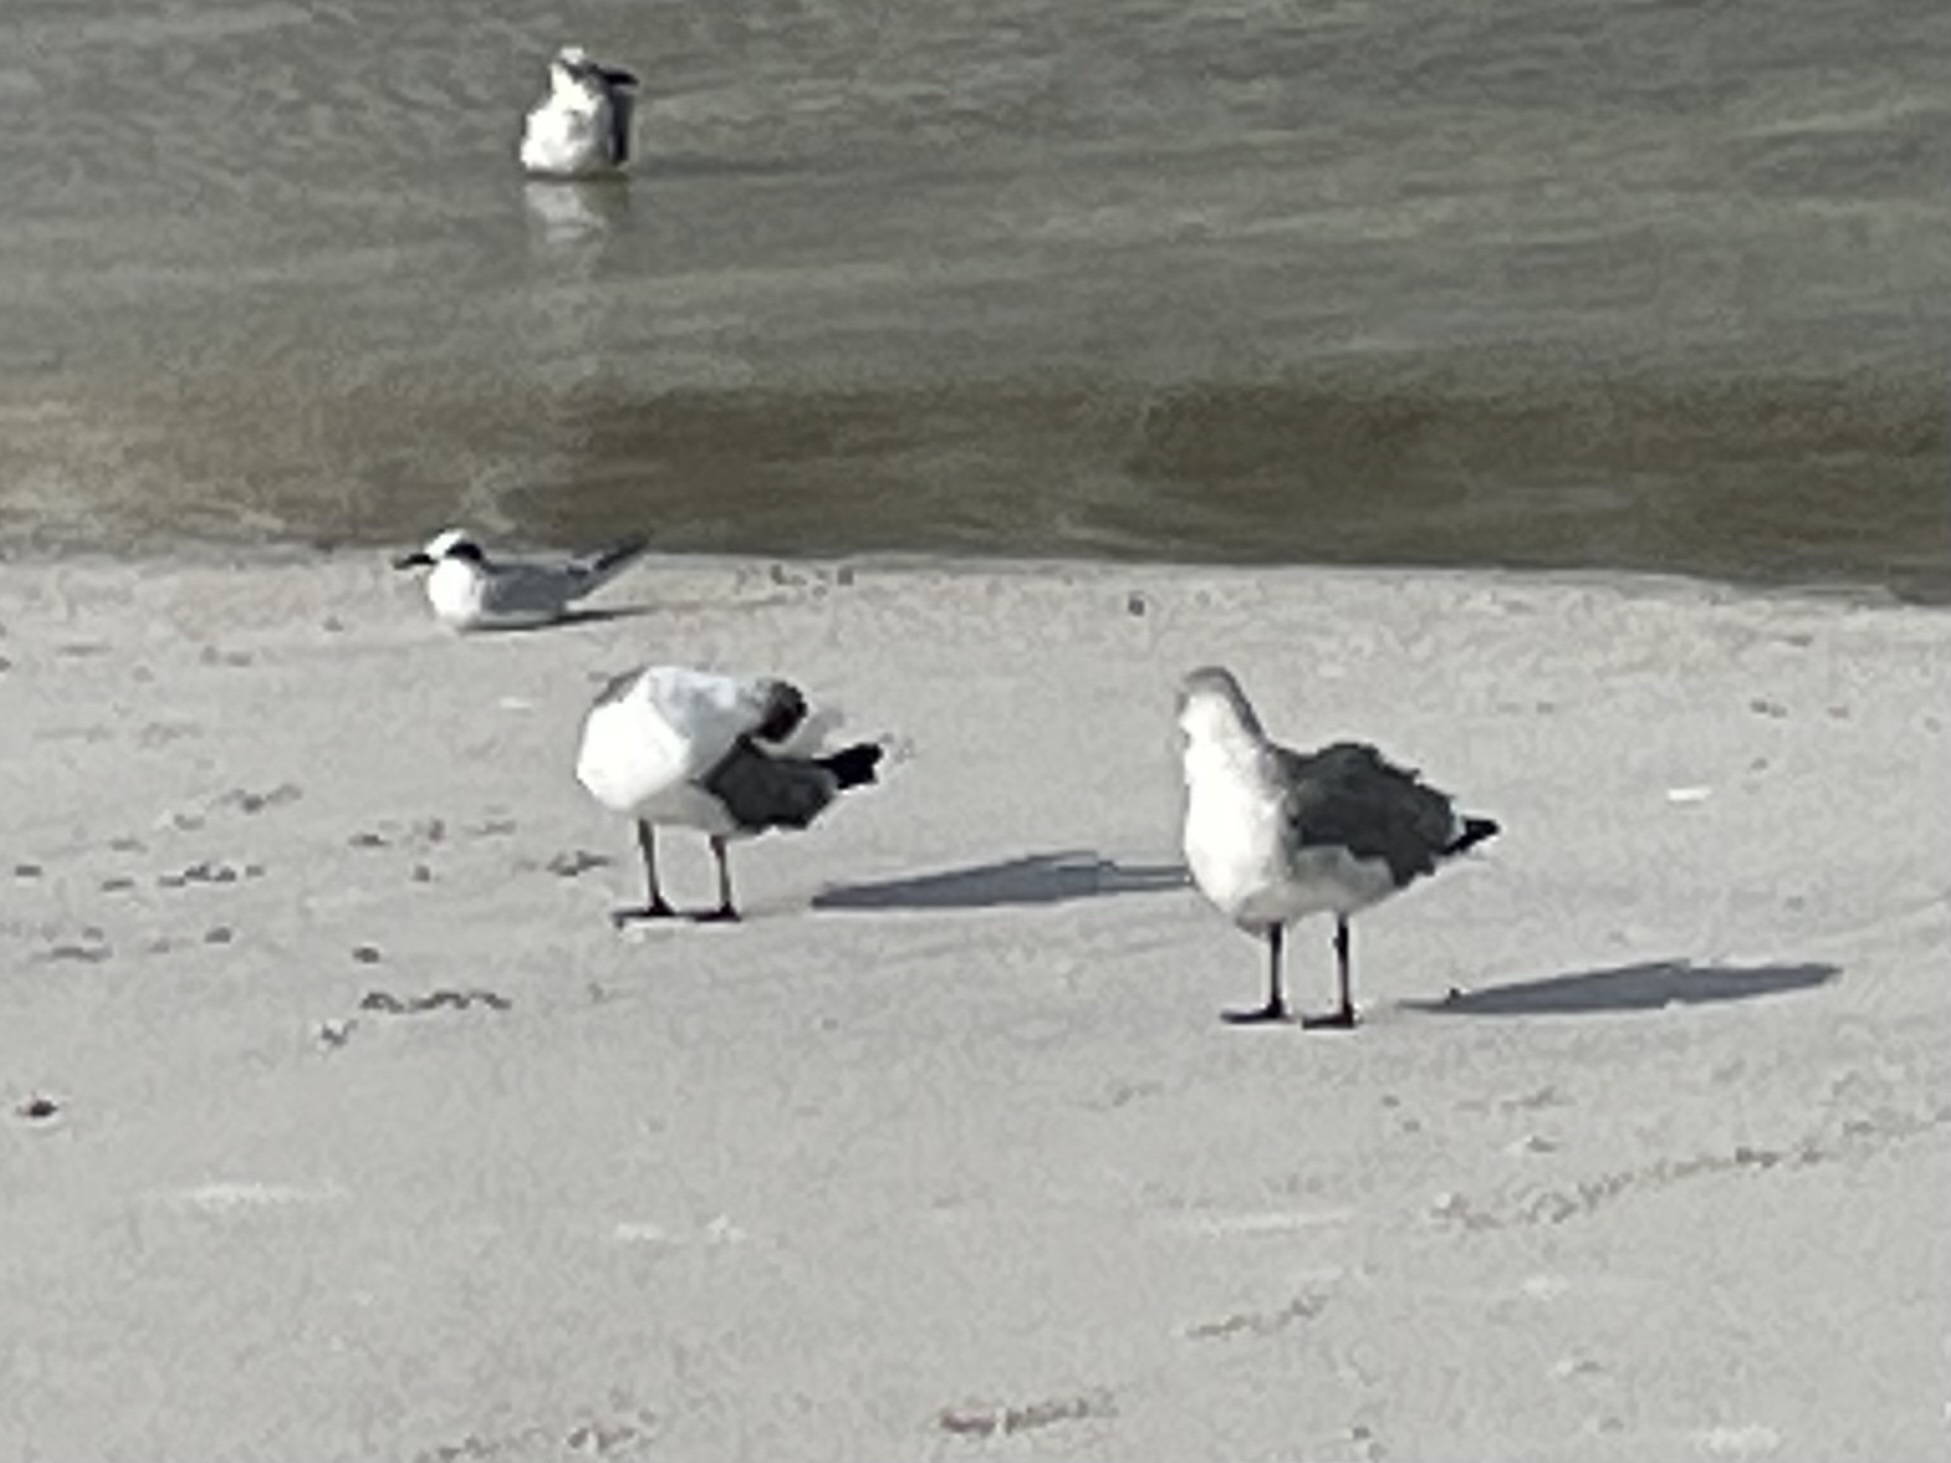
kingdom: Animalia
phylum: Chordata
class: Aves
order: Charadriiformes
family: Laridae
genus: Leucophaeus
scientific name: Leucophaeus atricilla
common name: Laughing gull
